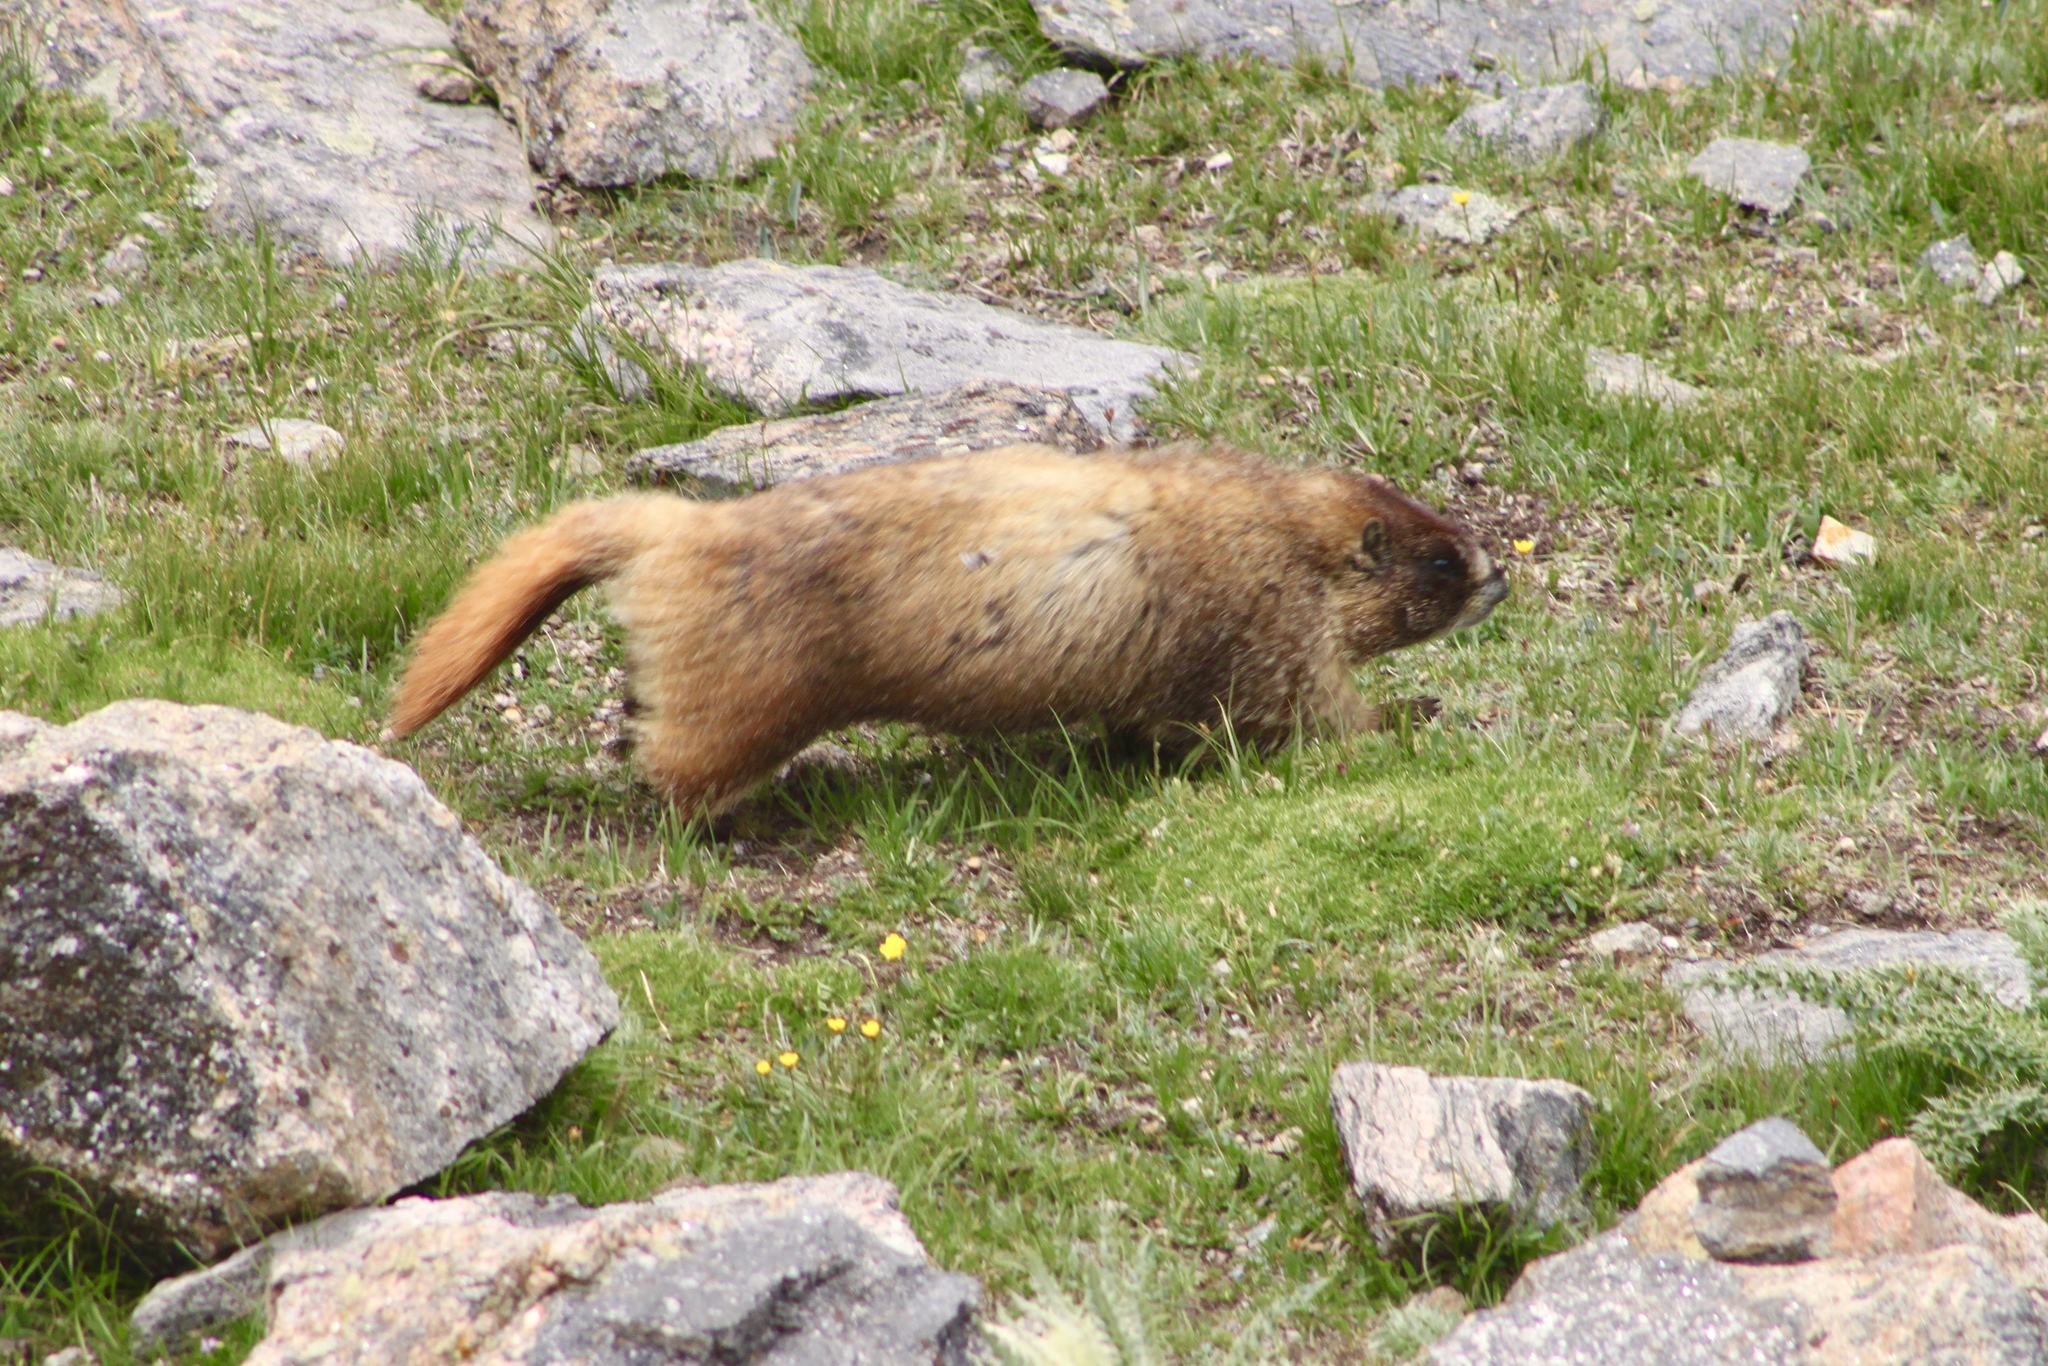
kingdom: Animalia
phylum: Chordata
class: Mammalia
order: Rodentia
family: Sciuridae
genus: Marmota
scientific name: Marmota flaviventris
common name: Yellow-bellied marmot
